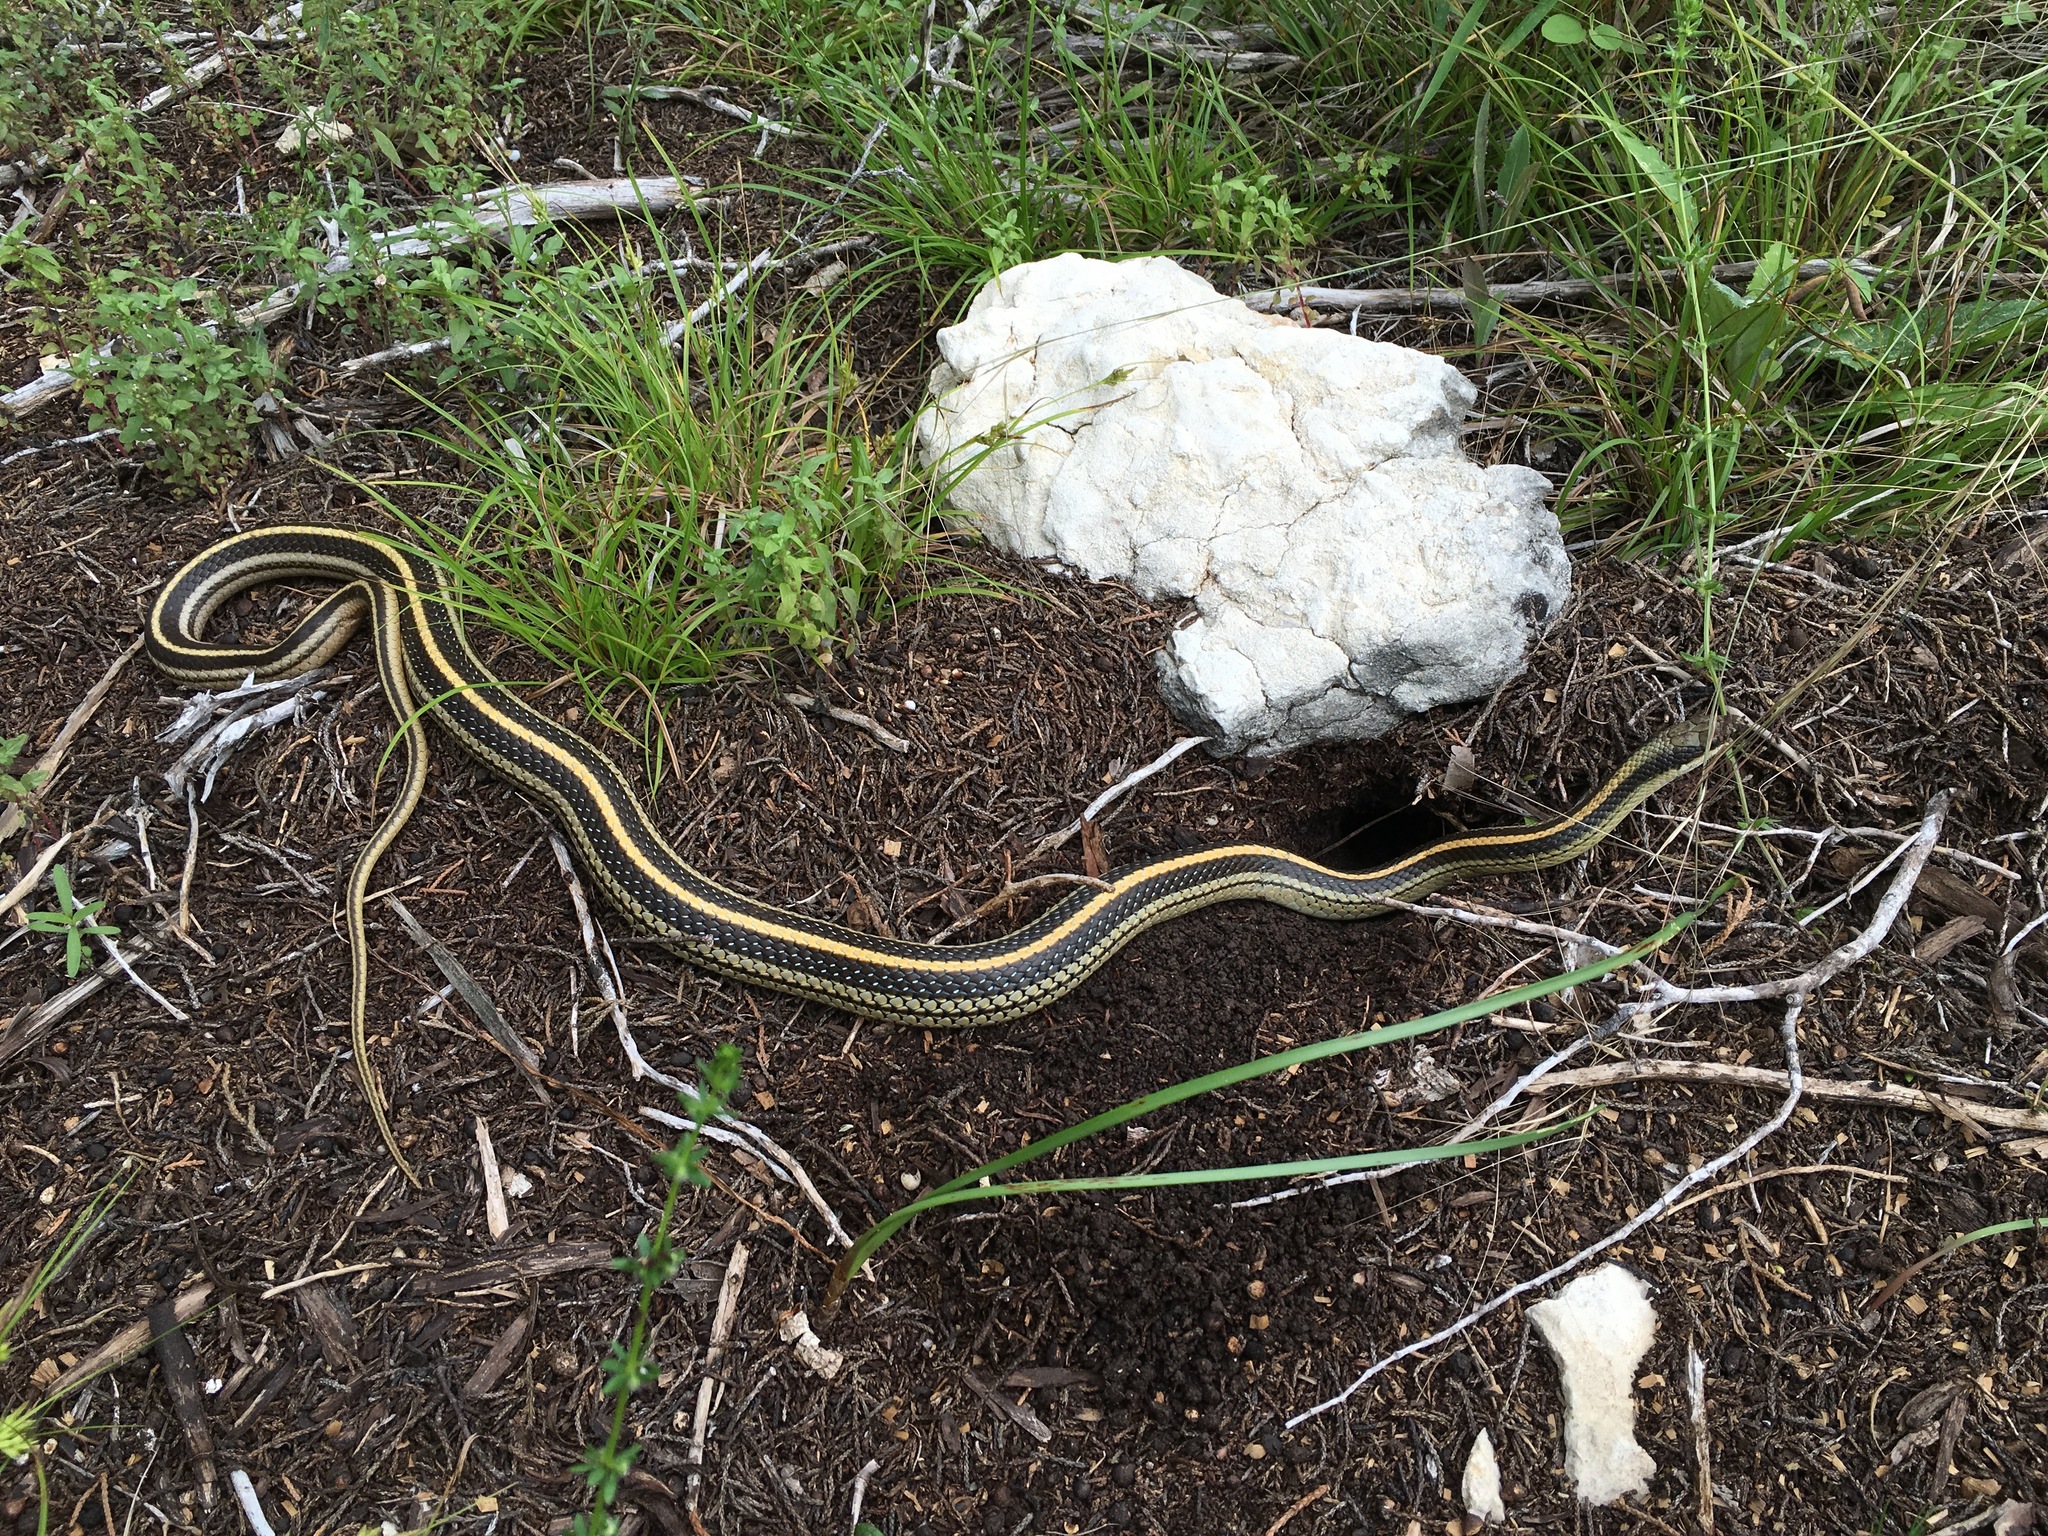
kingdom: Animalia
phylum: Chordata
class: Squamata
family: Colubridae
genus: Salvadora
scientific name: Salvadora lineata
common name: Texas patchnose snake
